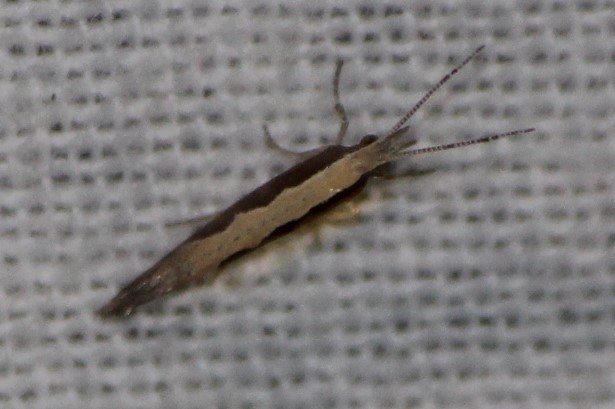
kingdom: Animalia
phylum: Arthropoda
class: Insecta
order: Lepidoptera
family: Plutellidae
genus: Plutella
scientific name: Plutella xylostella
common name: Diamond-back moth
